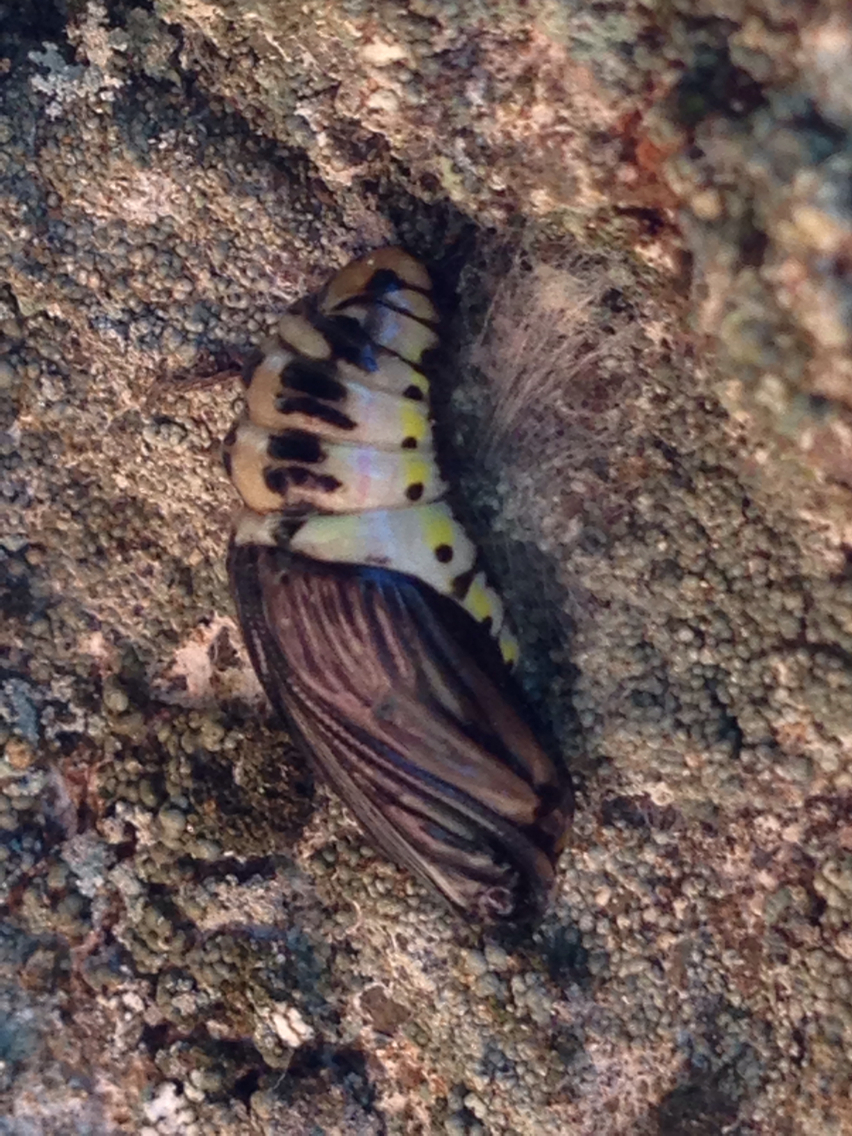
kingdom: Animalia
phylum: Arthropoda
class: Insecta
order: Lepidoptera
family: Notodontidae
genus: Phryganidia
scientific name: Phryganidia californica
